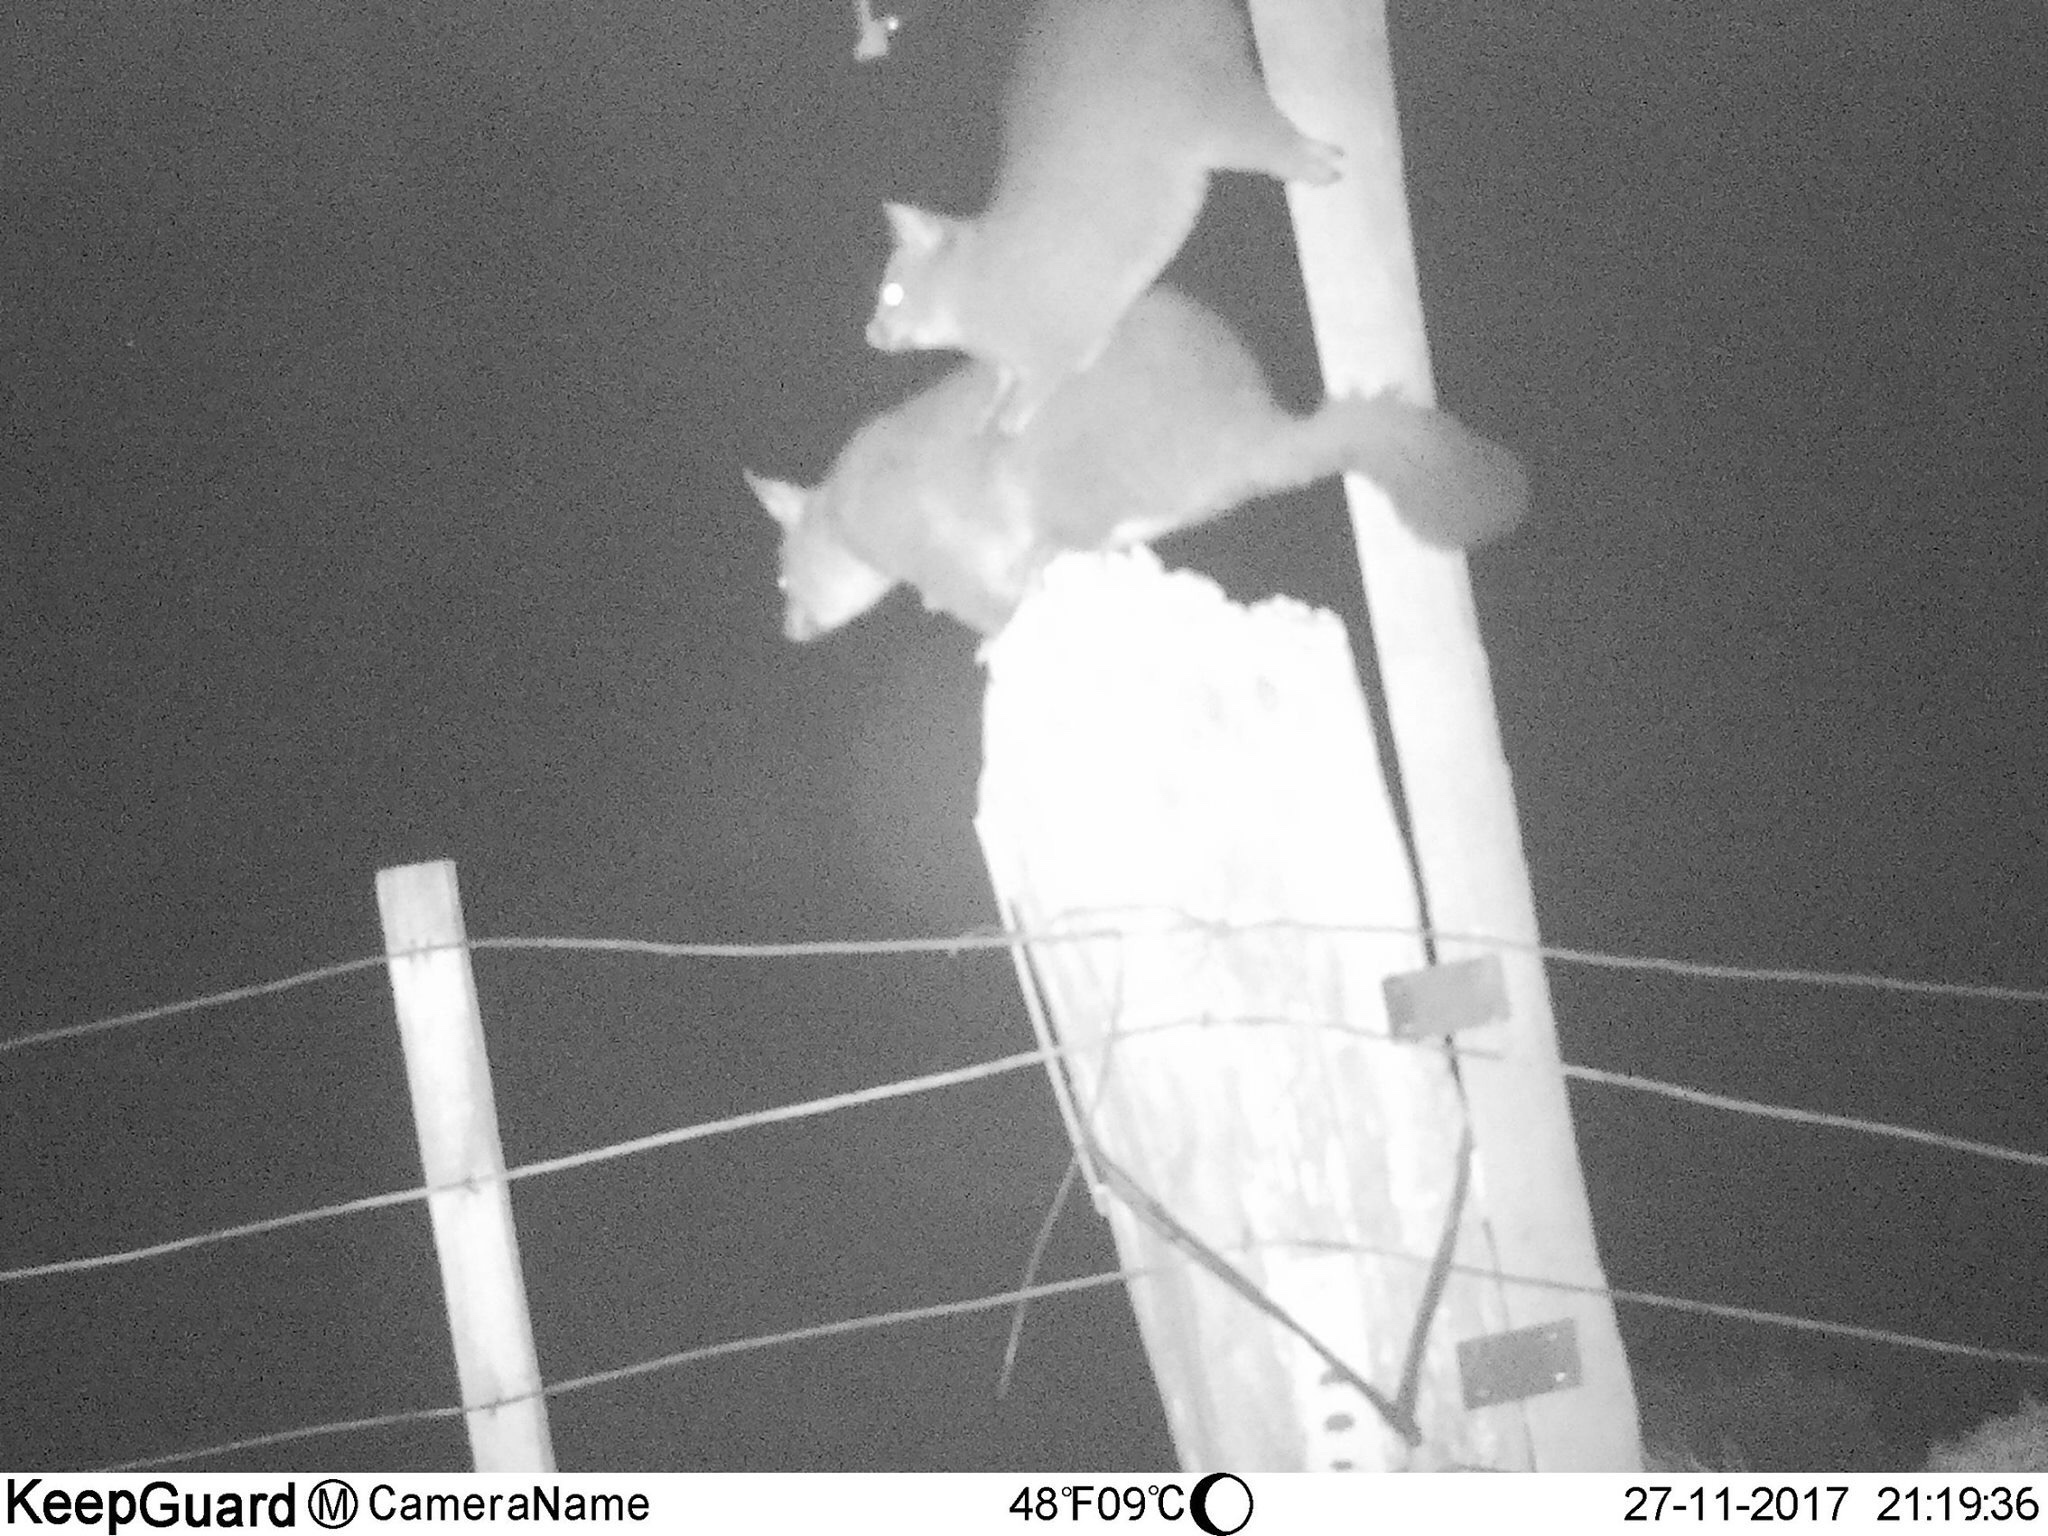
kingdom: Animalia
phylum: Chordata
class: Mammalia
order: Diprotodontia
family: Phalangeridae
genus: Trichosurus
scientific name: Trichosurus vulpecula
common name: Common brushtail
